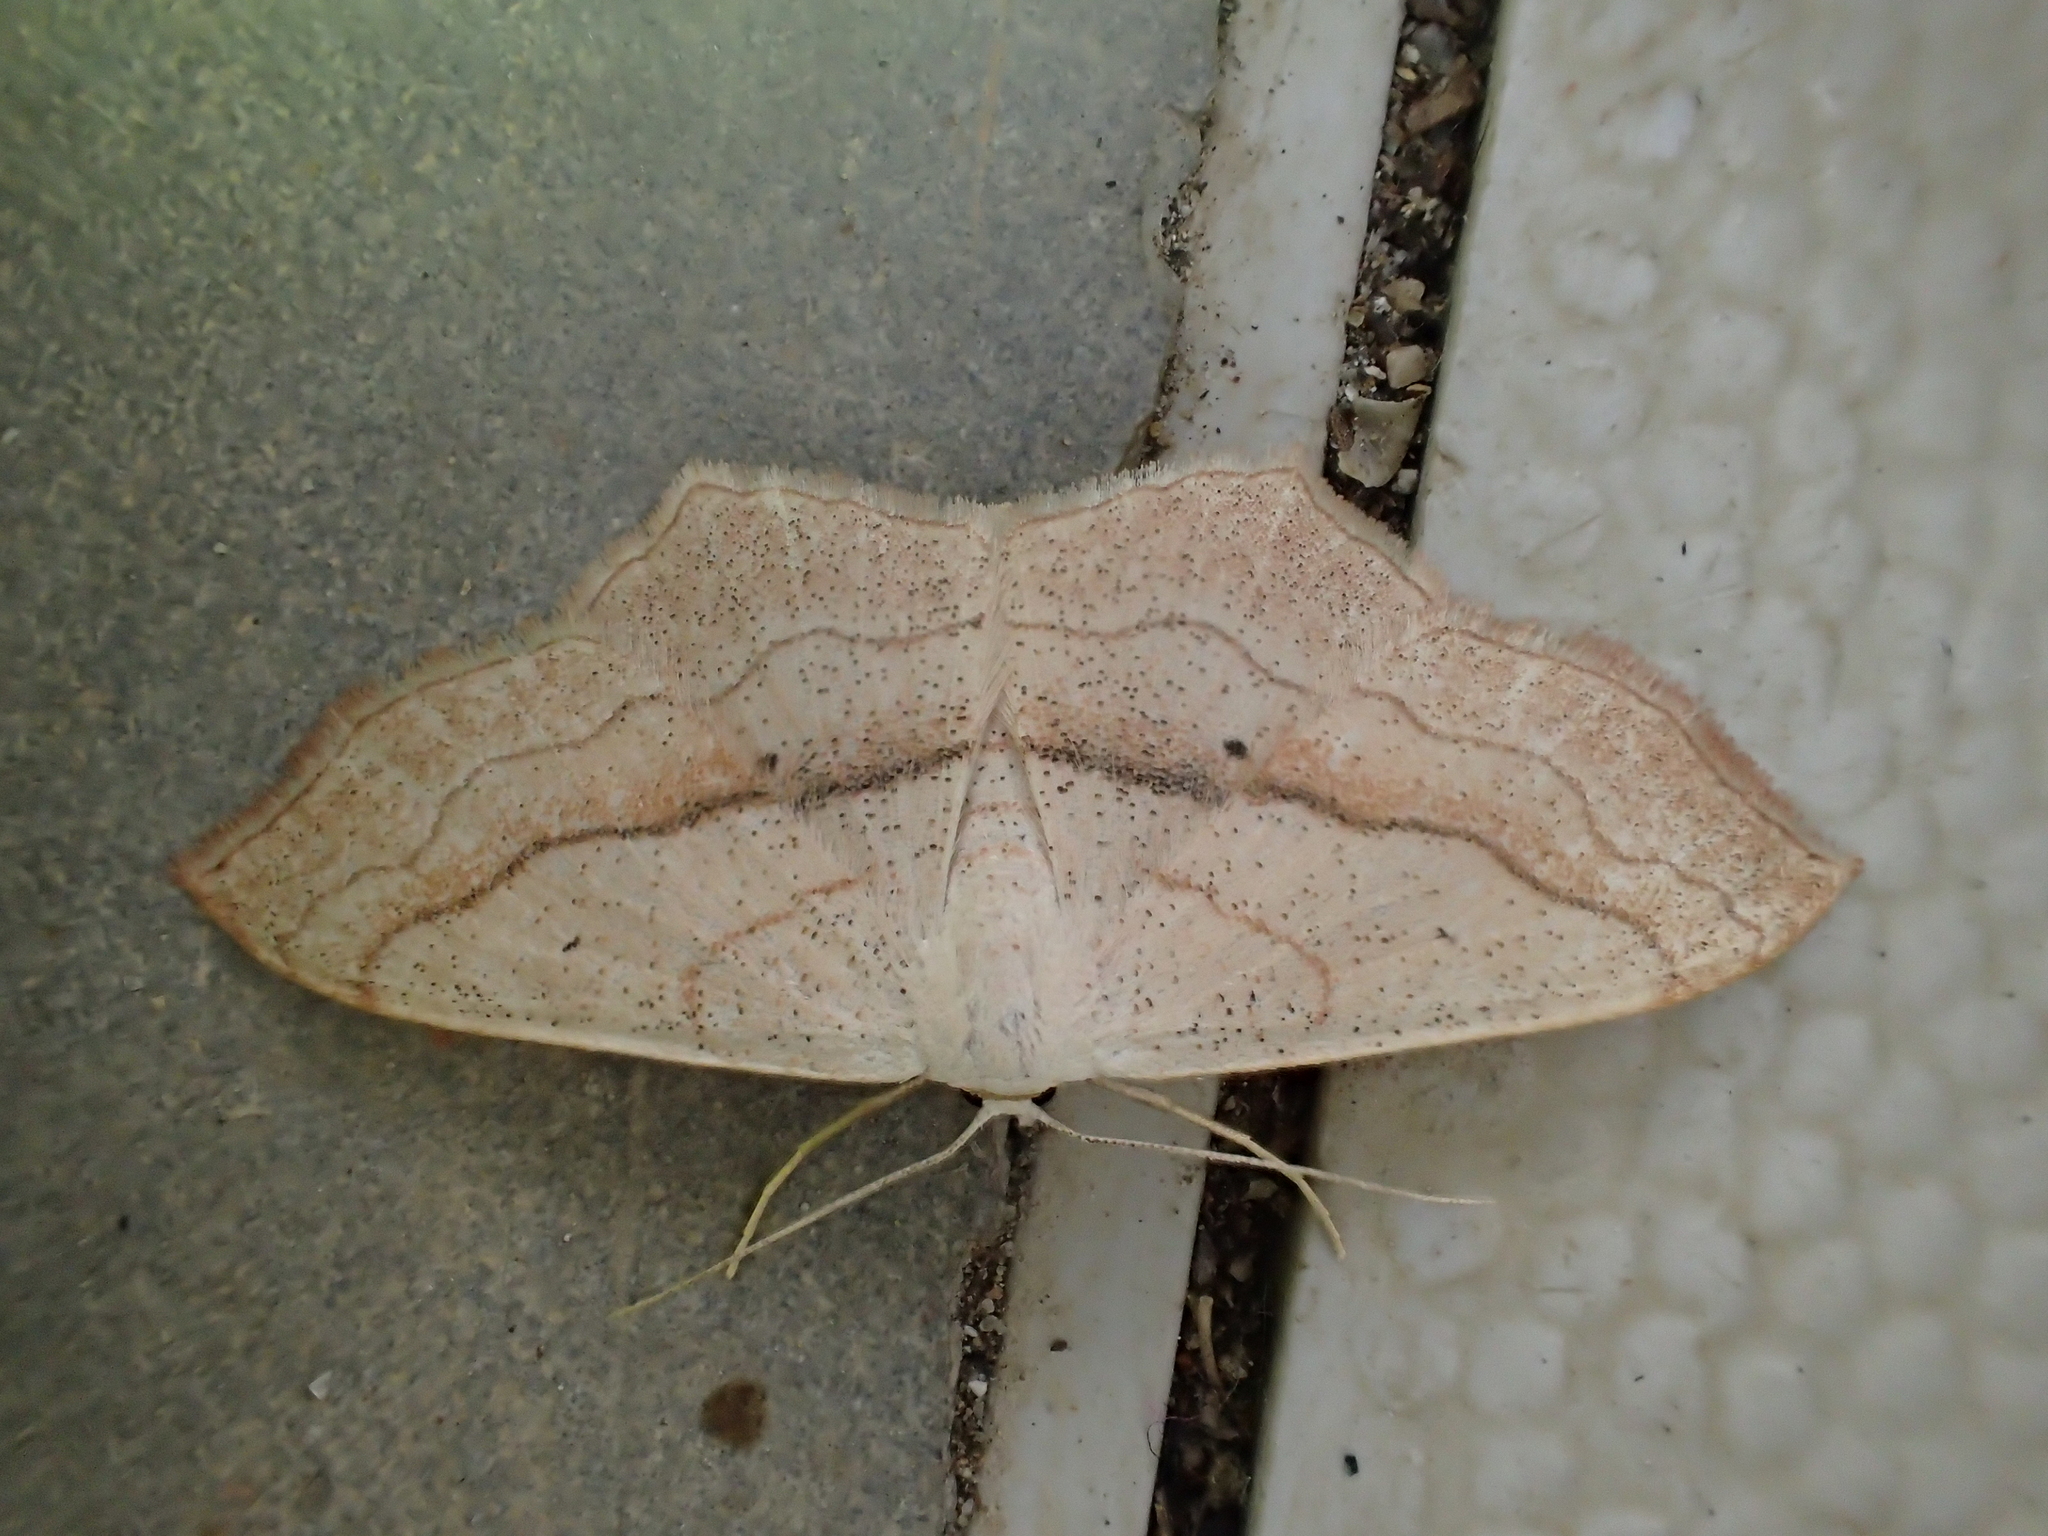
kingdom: Animalia
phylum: Arthropoda
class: Insecta
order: Lepidoptera
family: Geometridae
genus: Scopula
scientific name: Scopula imitaria
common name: Small blood-vein
